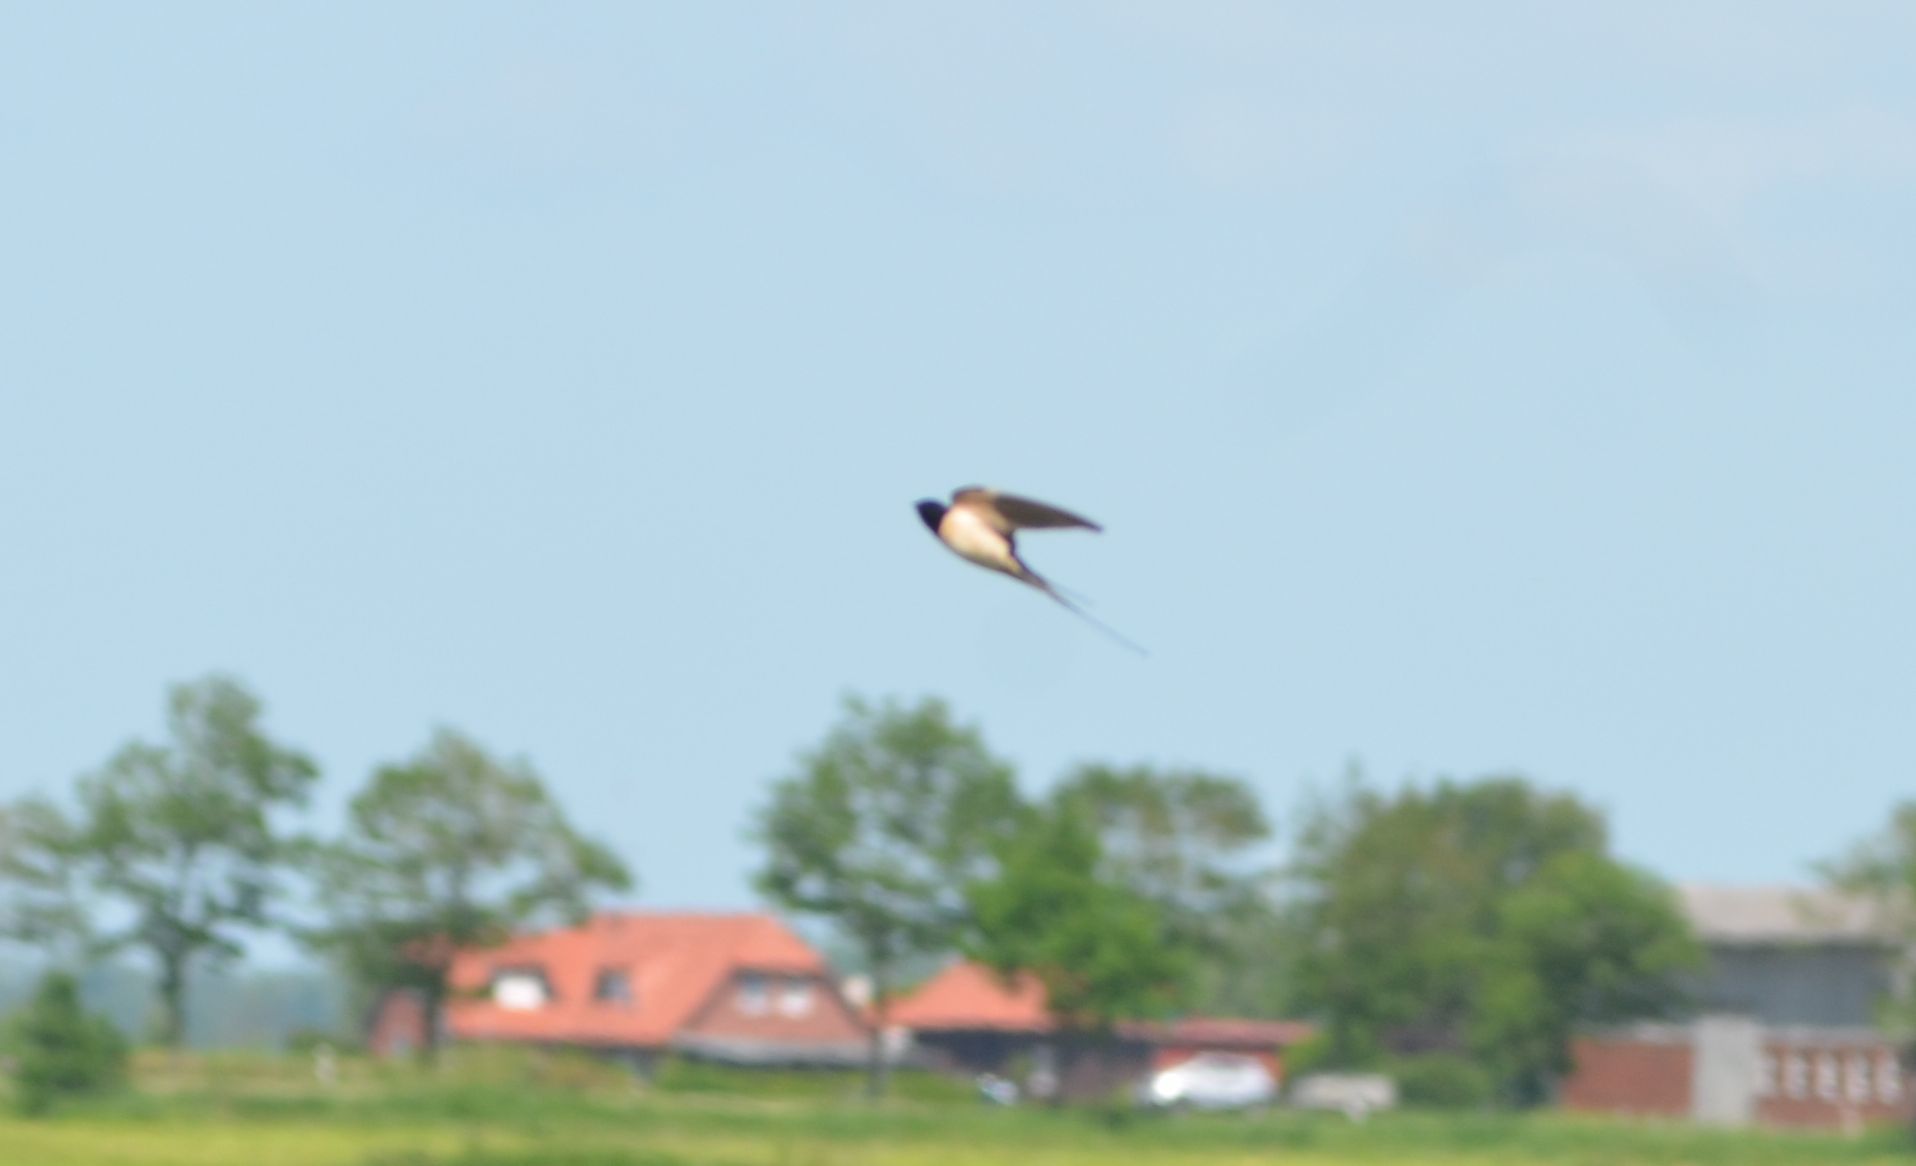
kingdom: Animalia
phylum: Chordata
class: Aves
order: Passeriformes
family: Hirundinidae
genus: Hirundo
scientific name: Hirundo rustica
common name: Barn swallow
